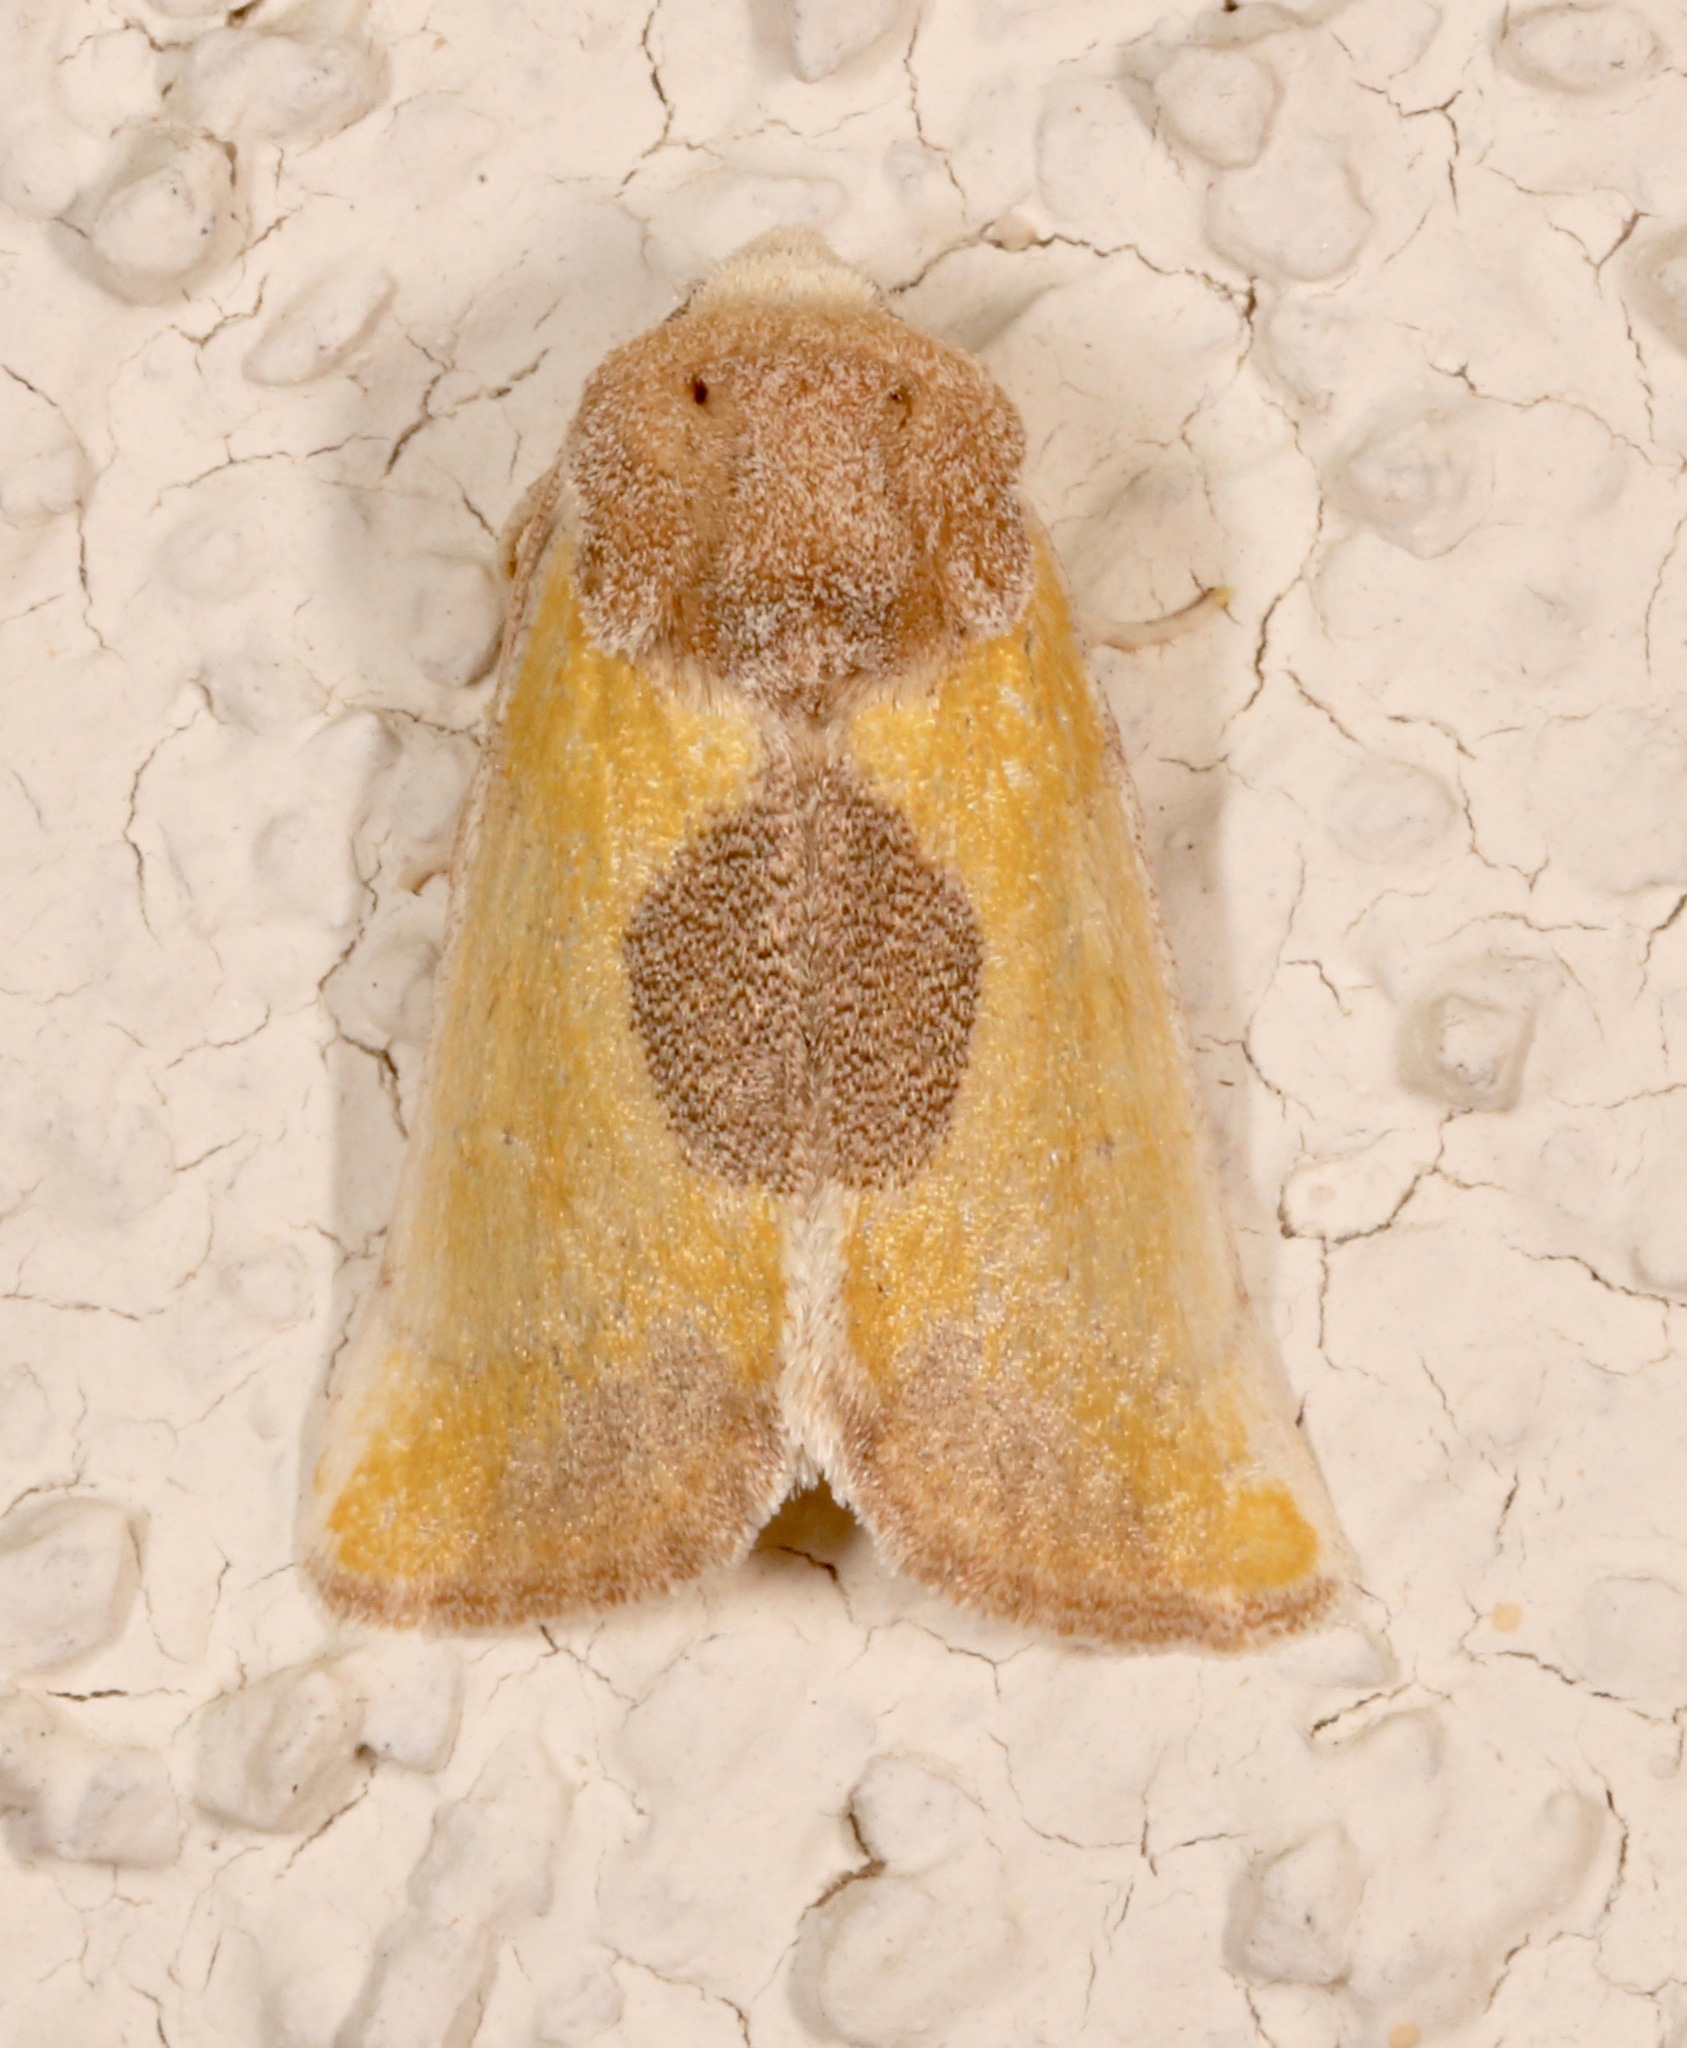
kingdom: Animalia
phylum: Arthropoda
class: Insecta
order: Lepidoptera
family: Noctuidae
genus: Stiria
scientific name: Stiria consuela
